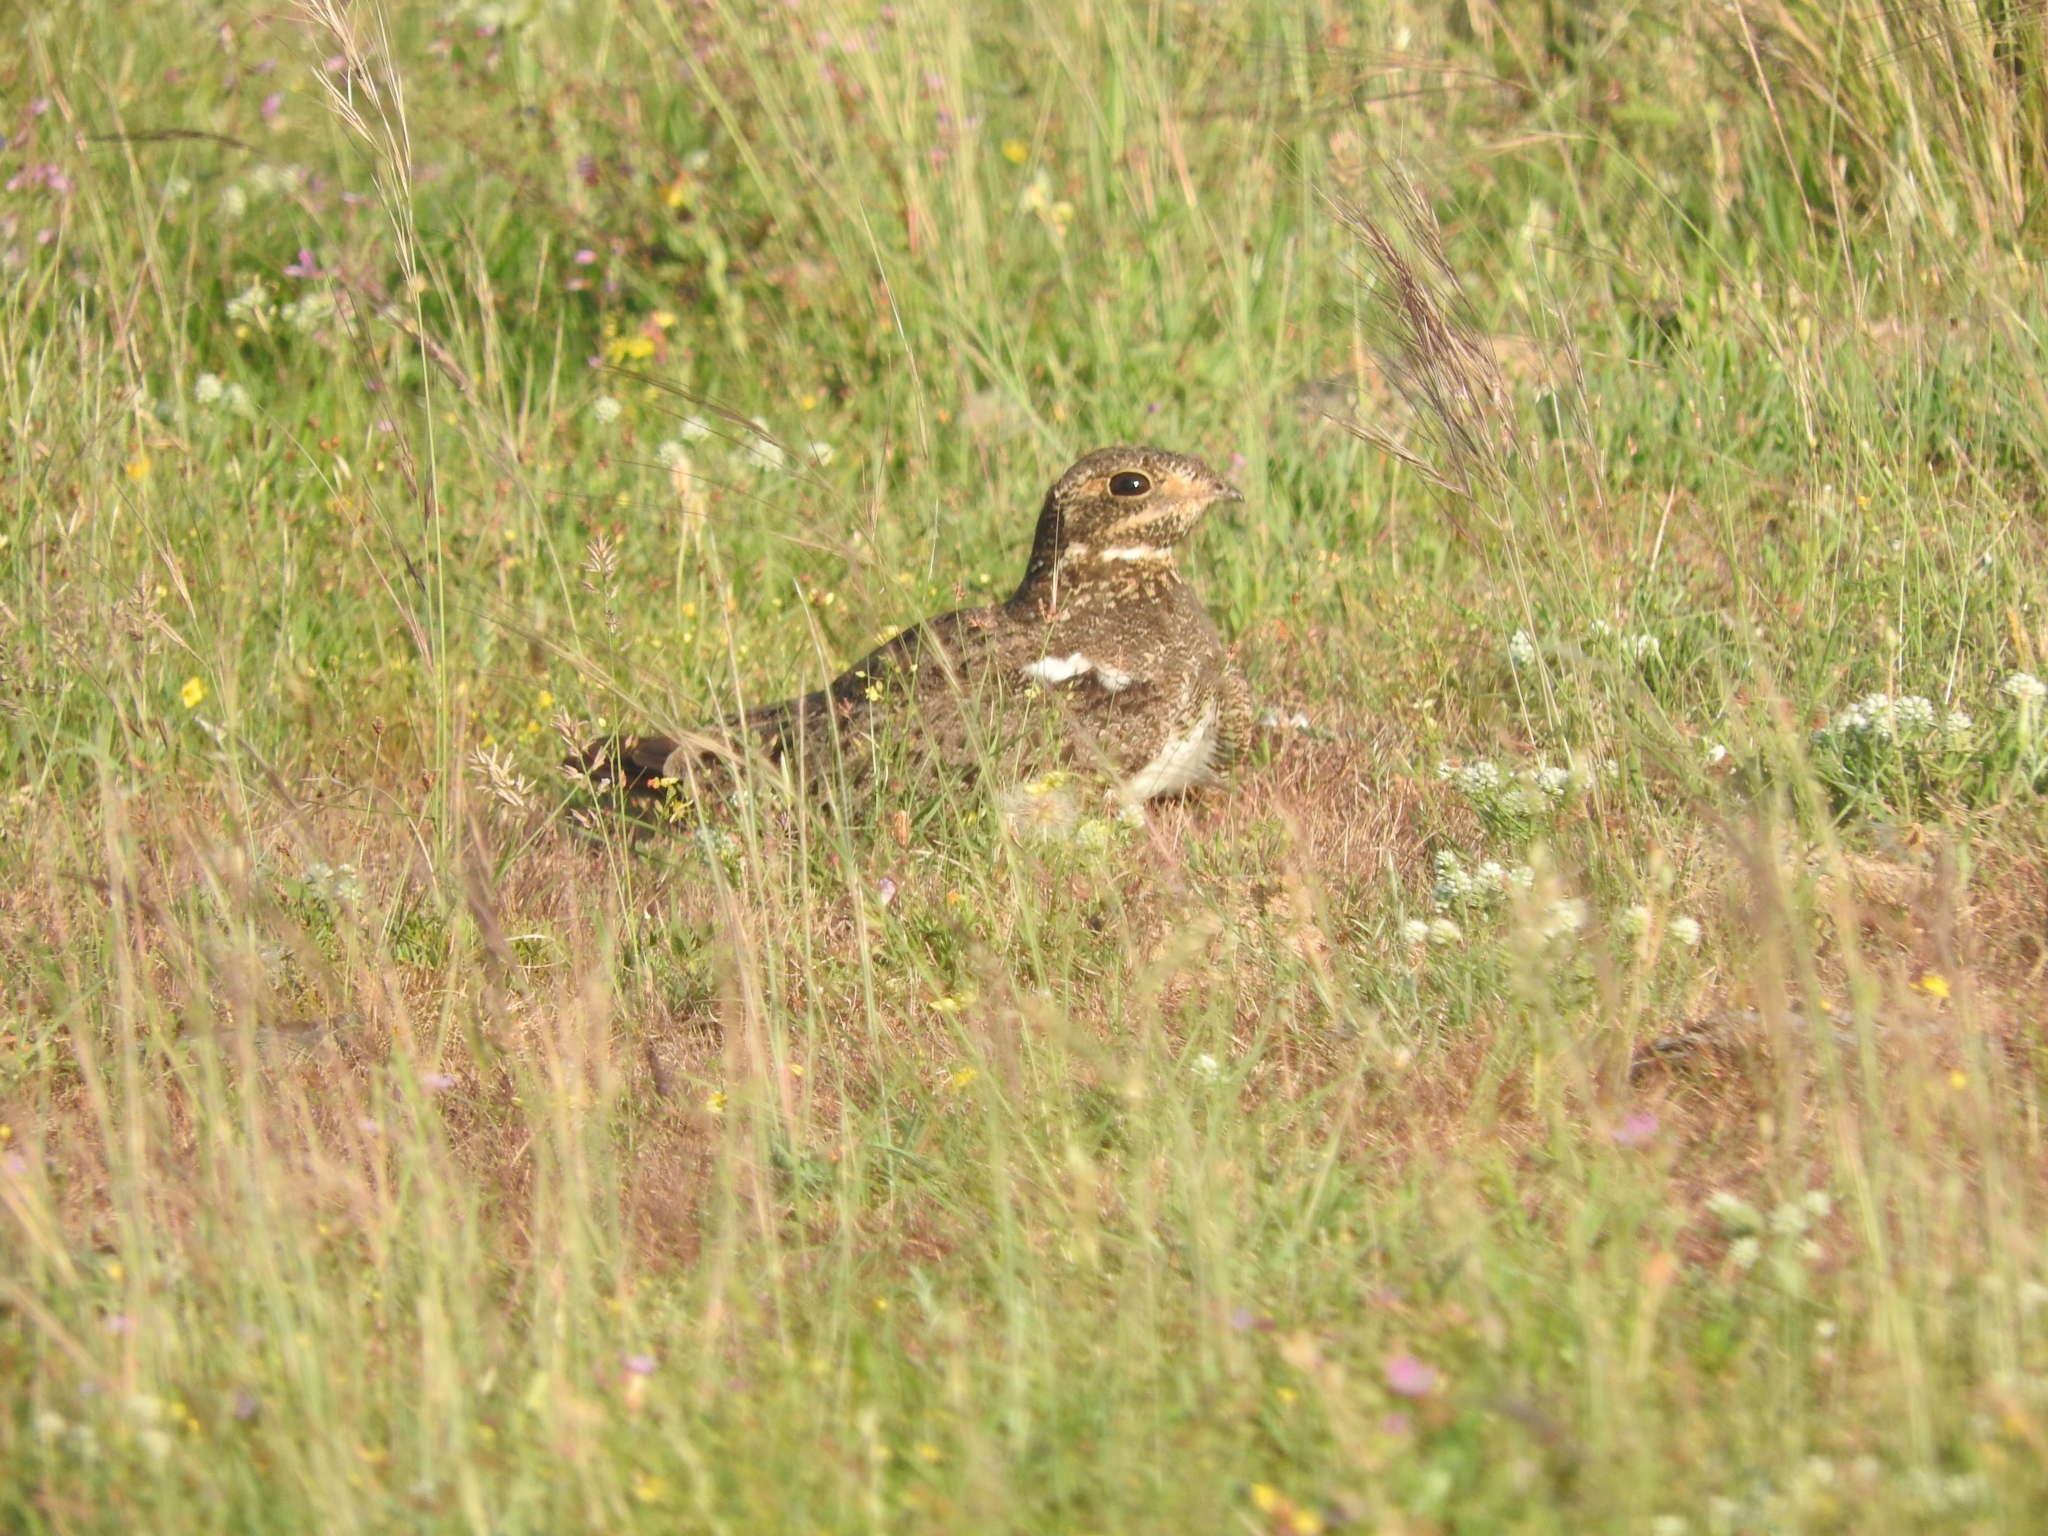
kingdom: Animalia
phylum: Chordata
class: Aves
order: Caprimulgiformes
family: Caprimulgidae
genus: Chordeiles
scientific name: Chordeiles nacunda
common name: Nacunda nighthawk
